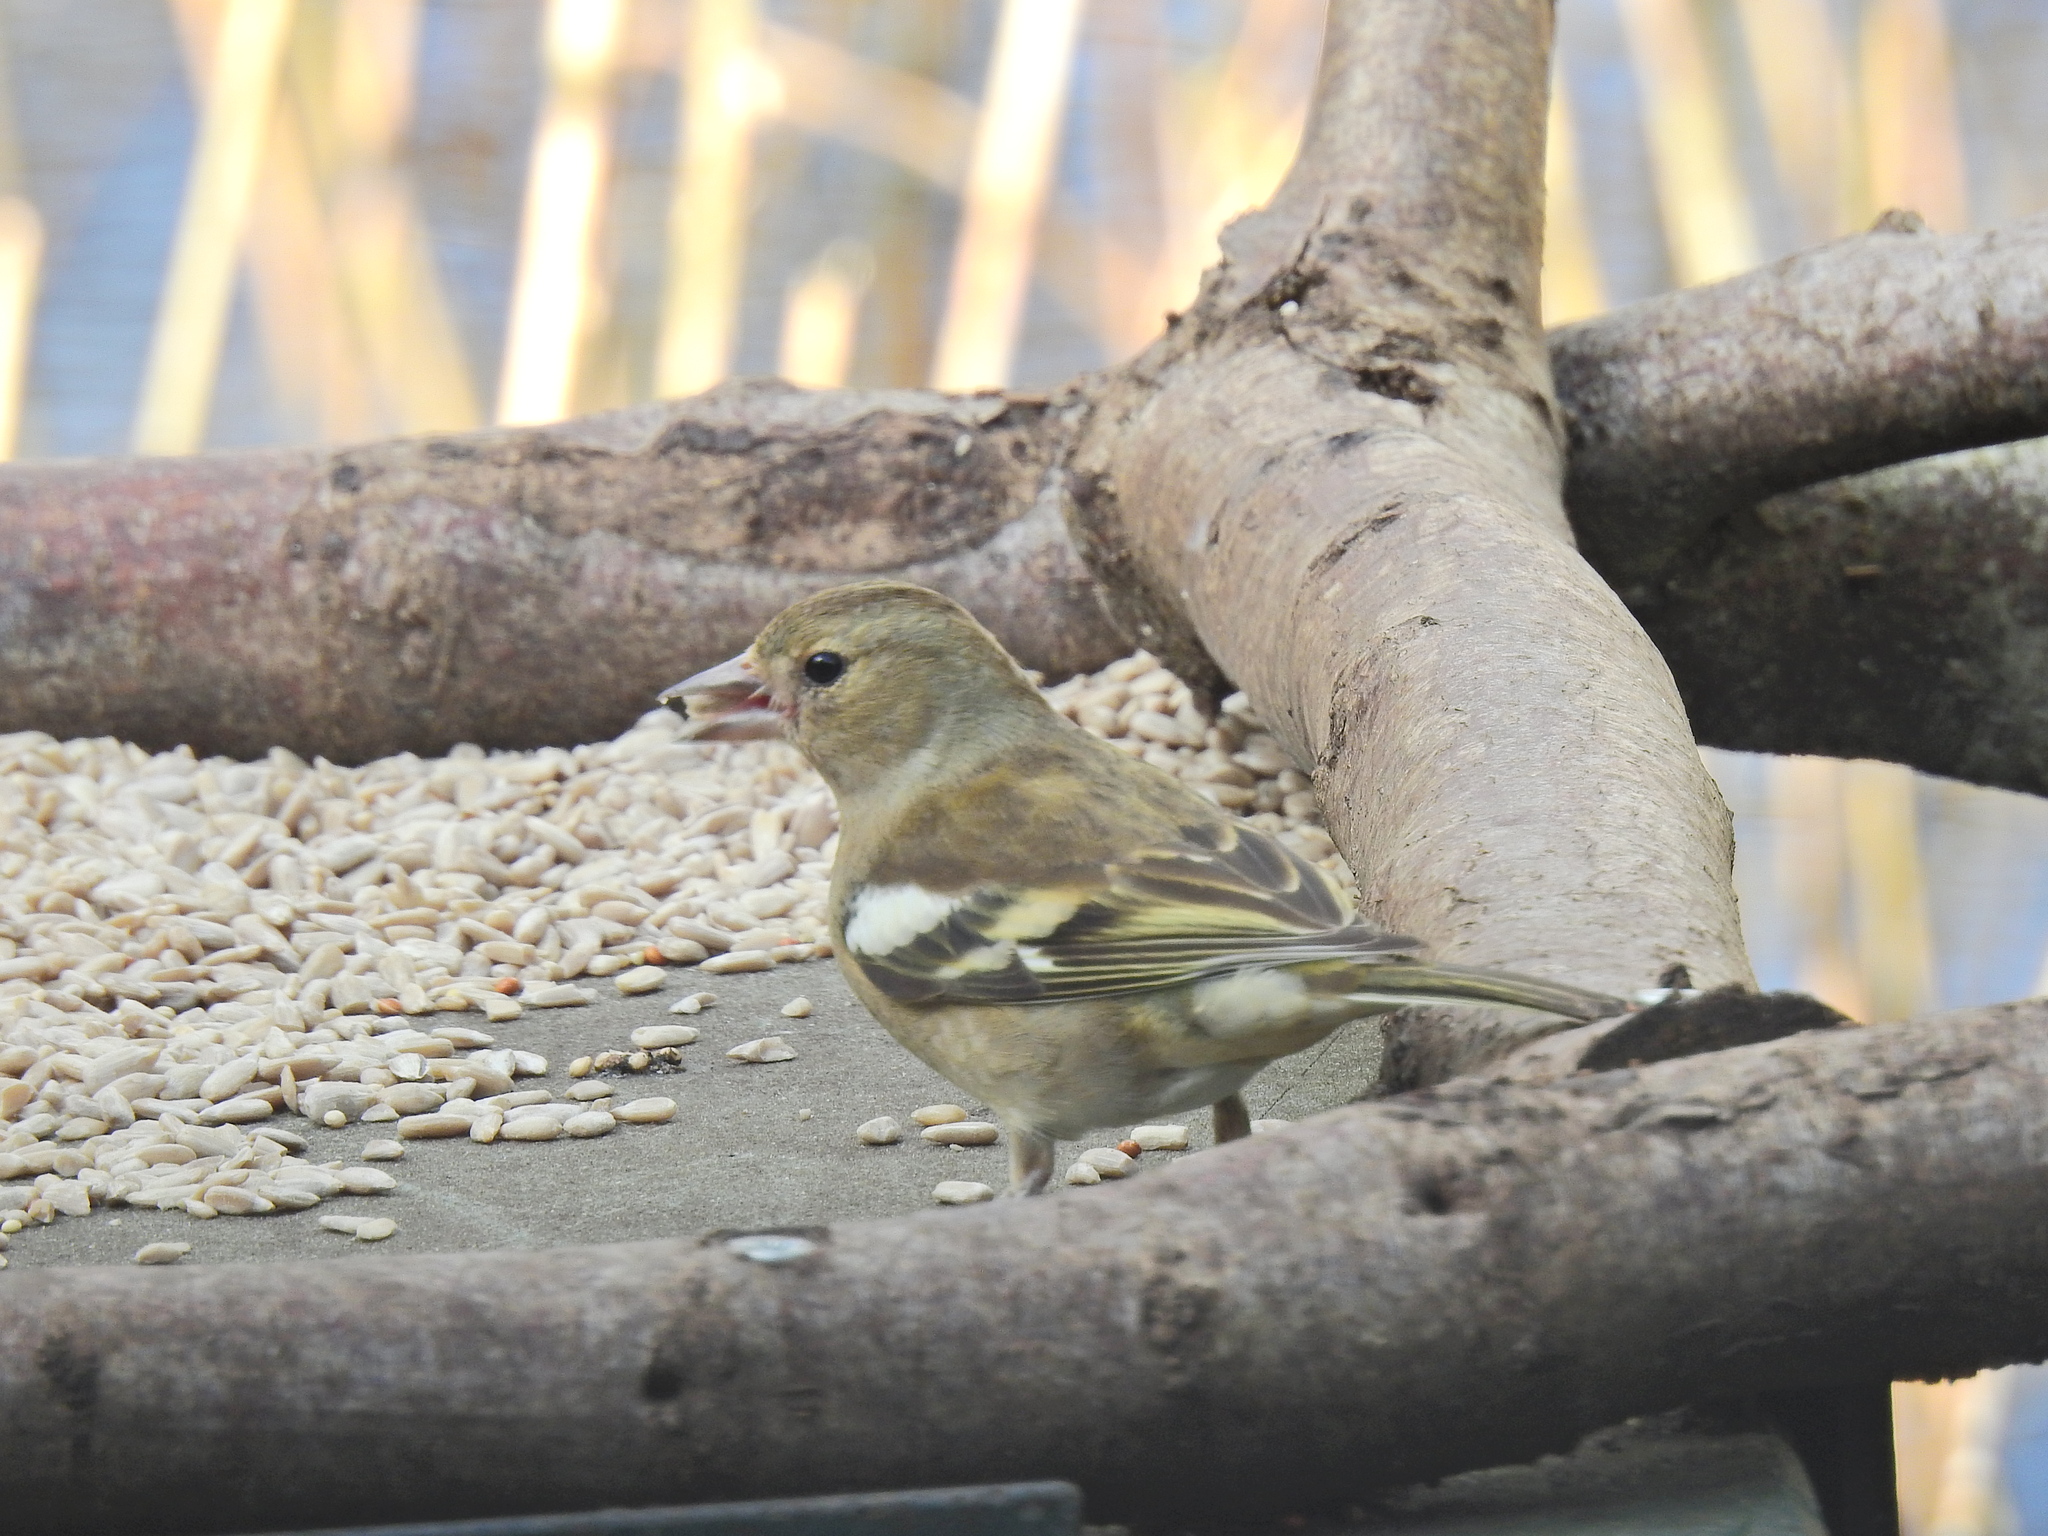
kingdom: Animalia
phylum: Chordata
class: Aves
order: Passeriformes
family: Fringillidae
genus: Fringilla
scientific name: Fringilla coelebs
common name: Common chaffinch
